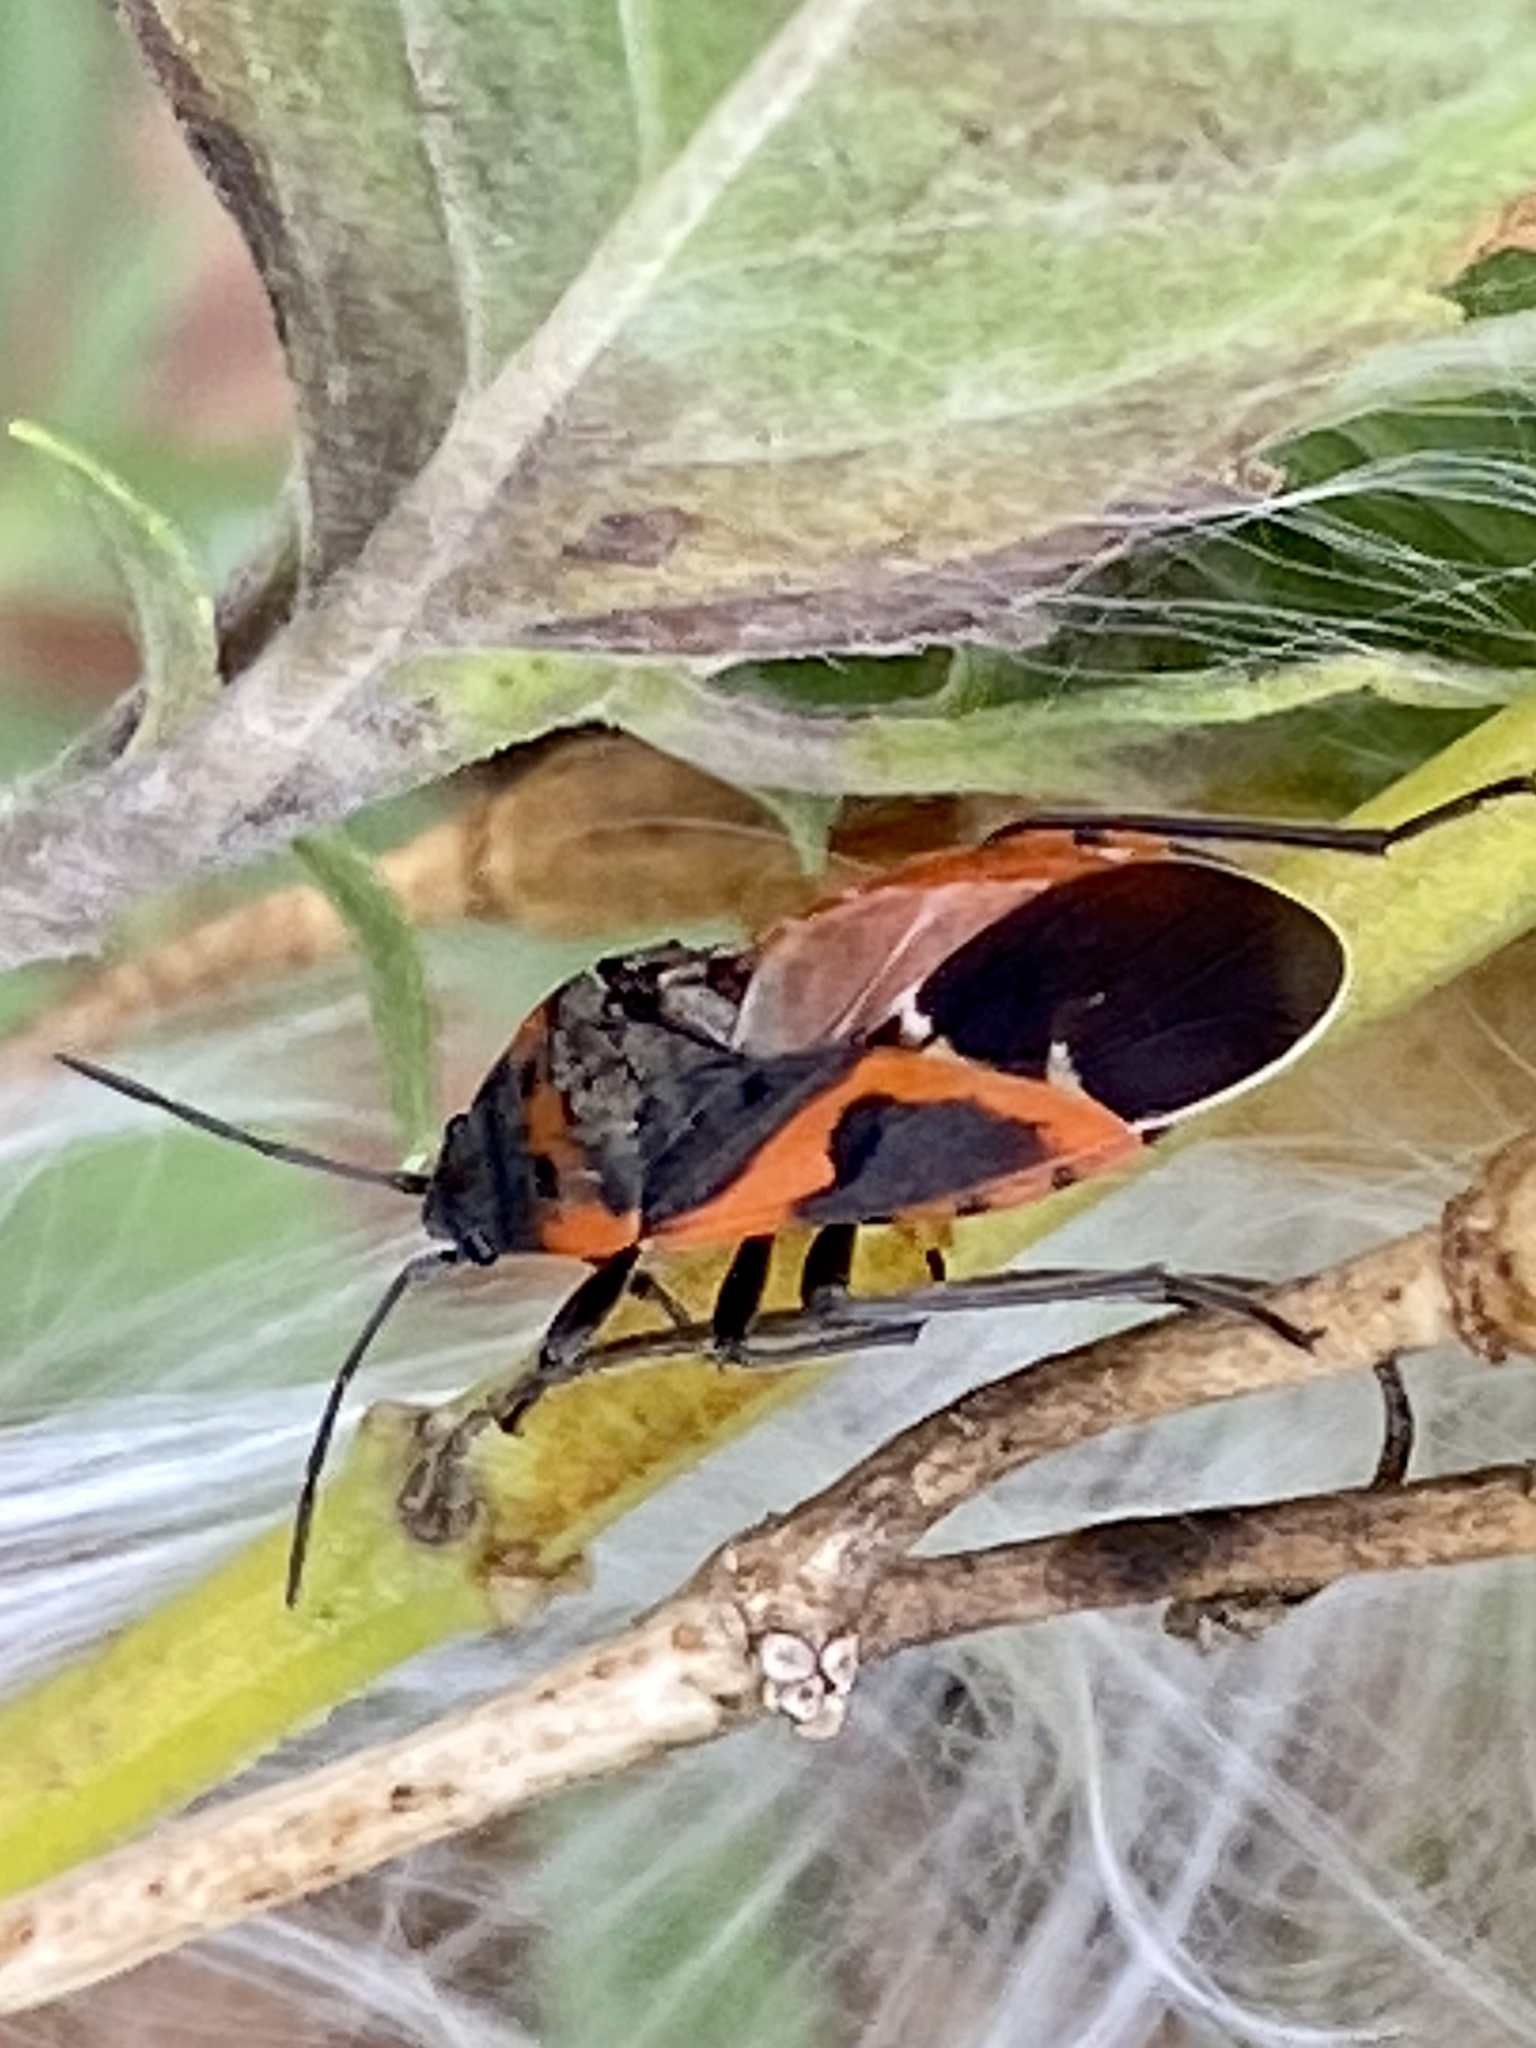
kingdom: Animalia
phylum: Arthropoda
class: Insecta
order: Hemiptera
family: Lygaeidae
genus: Lygaeus
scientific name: Lygaeus kalmii
